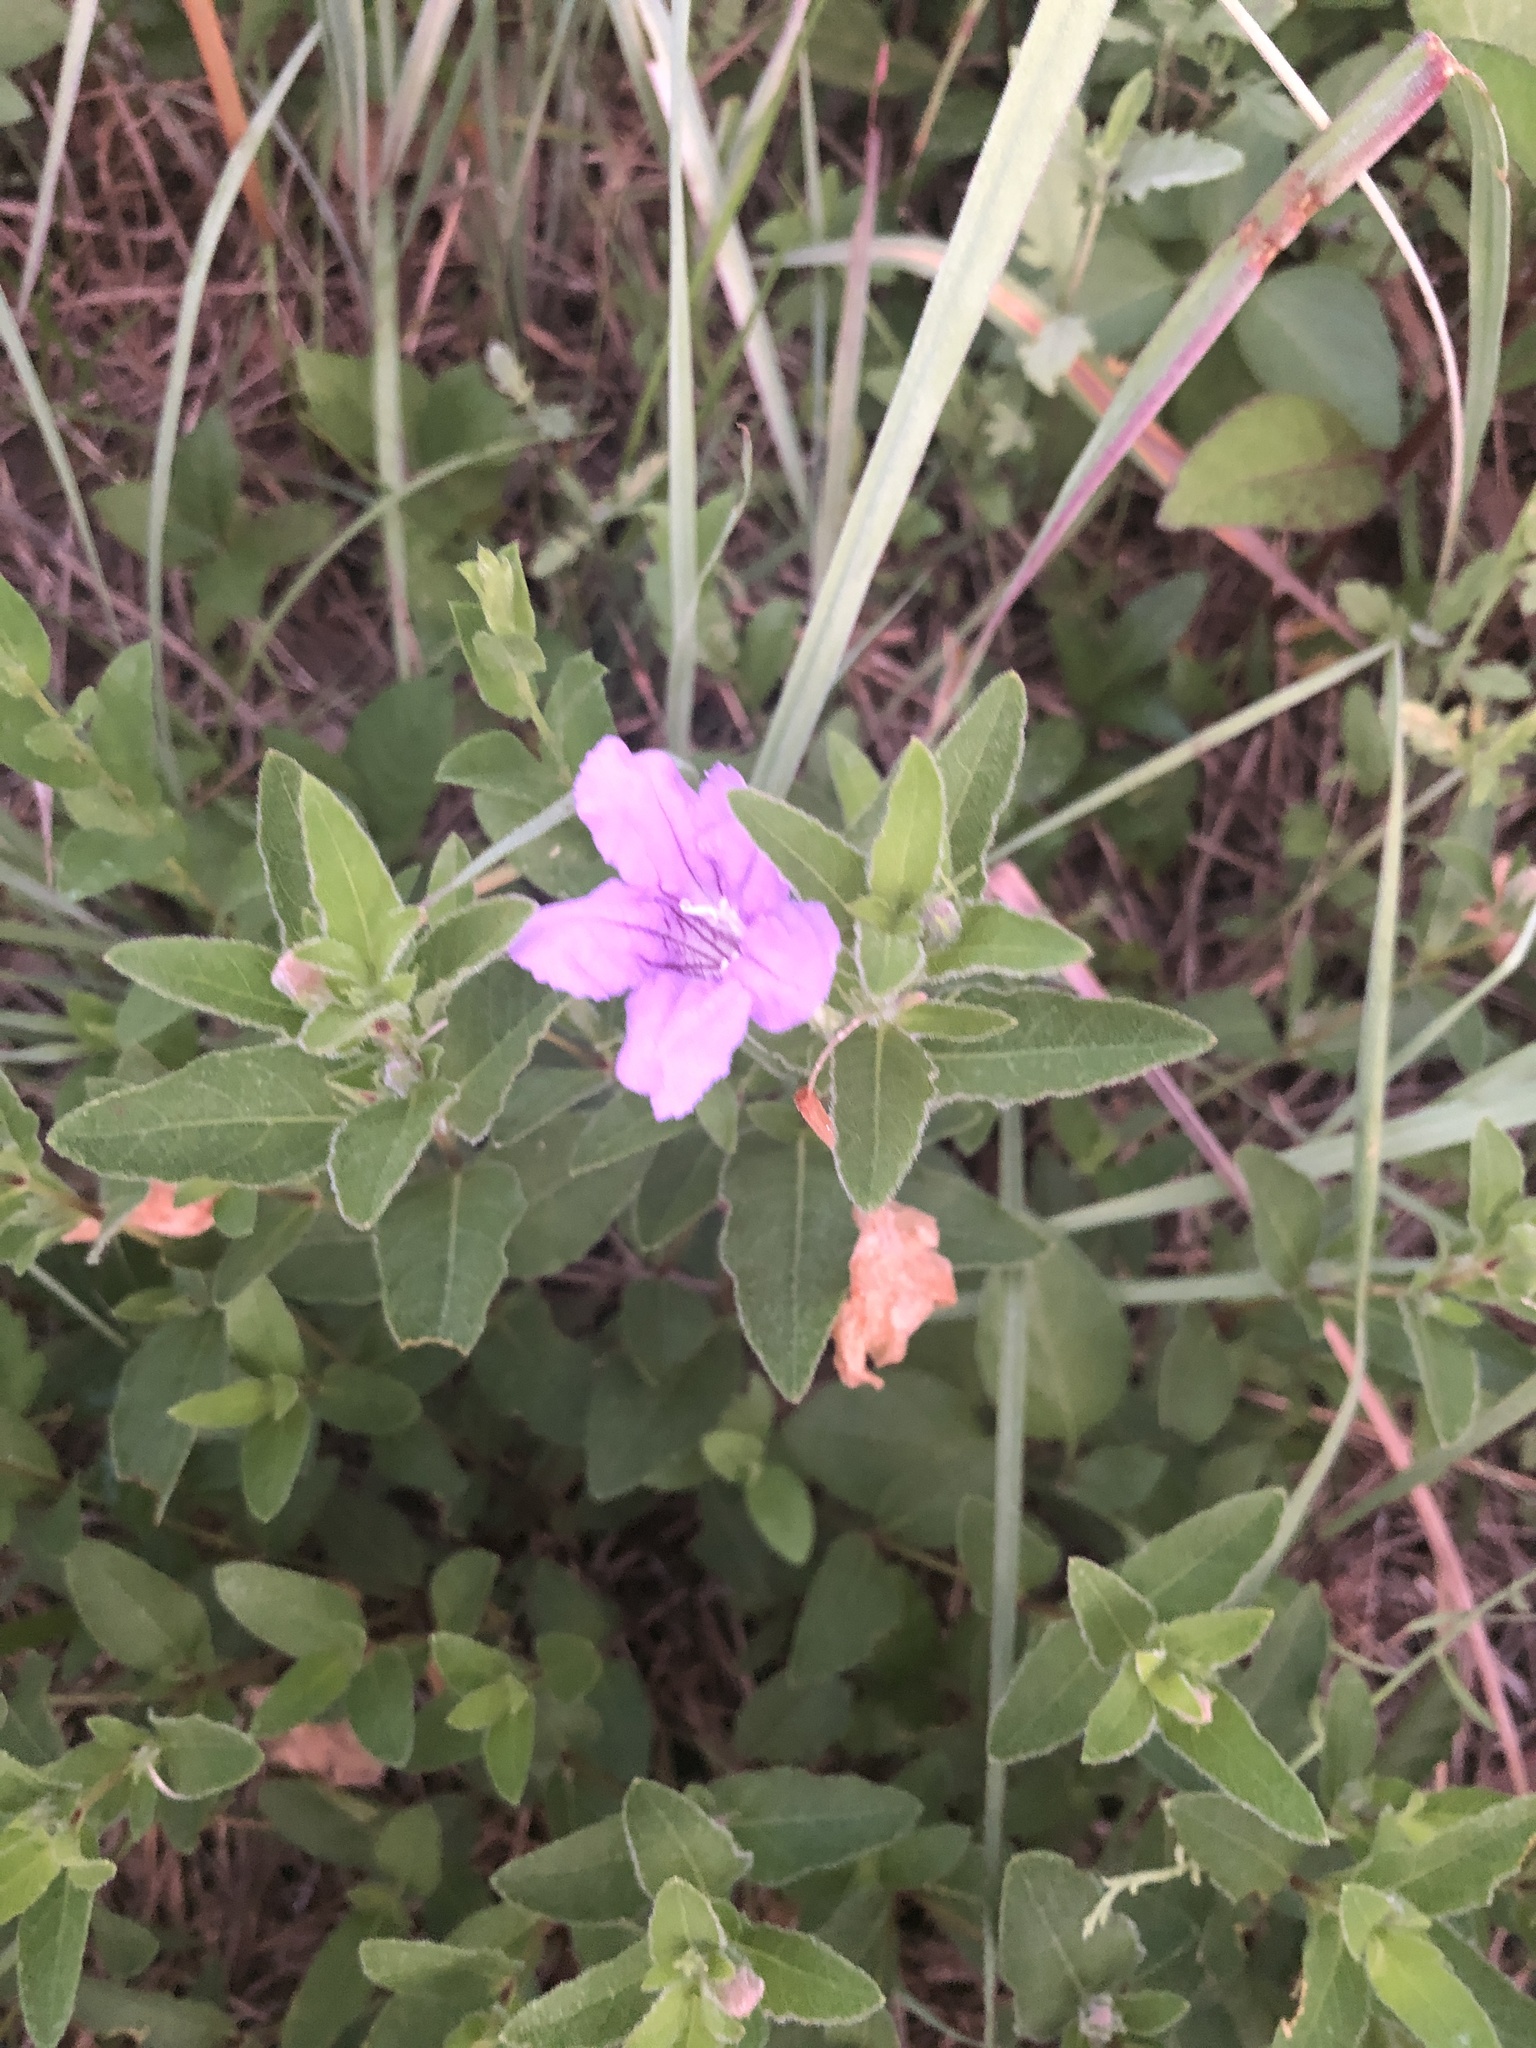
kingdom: Plantae
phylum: Tracheophyta
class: Magnoliopsida
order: Lamiales
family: Acanthaceae
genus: Ruellia
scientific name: Ruellia humilis
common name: Fringe-leaf ruellia
